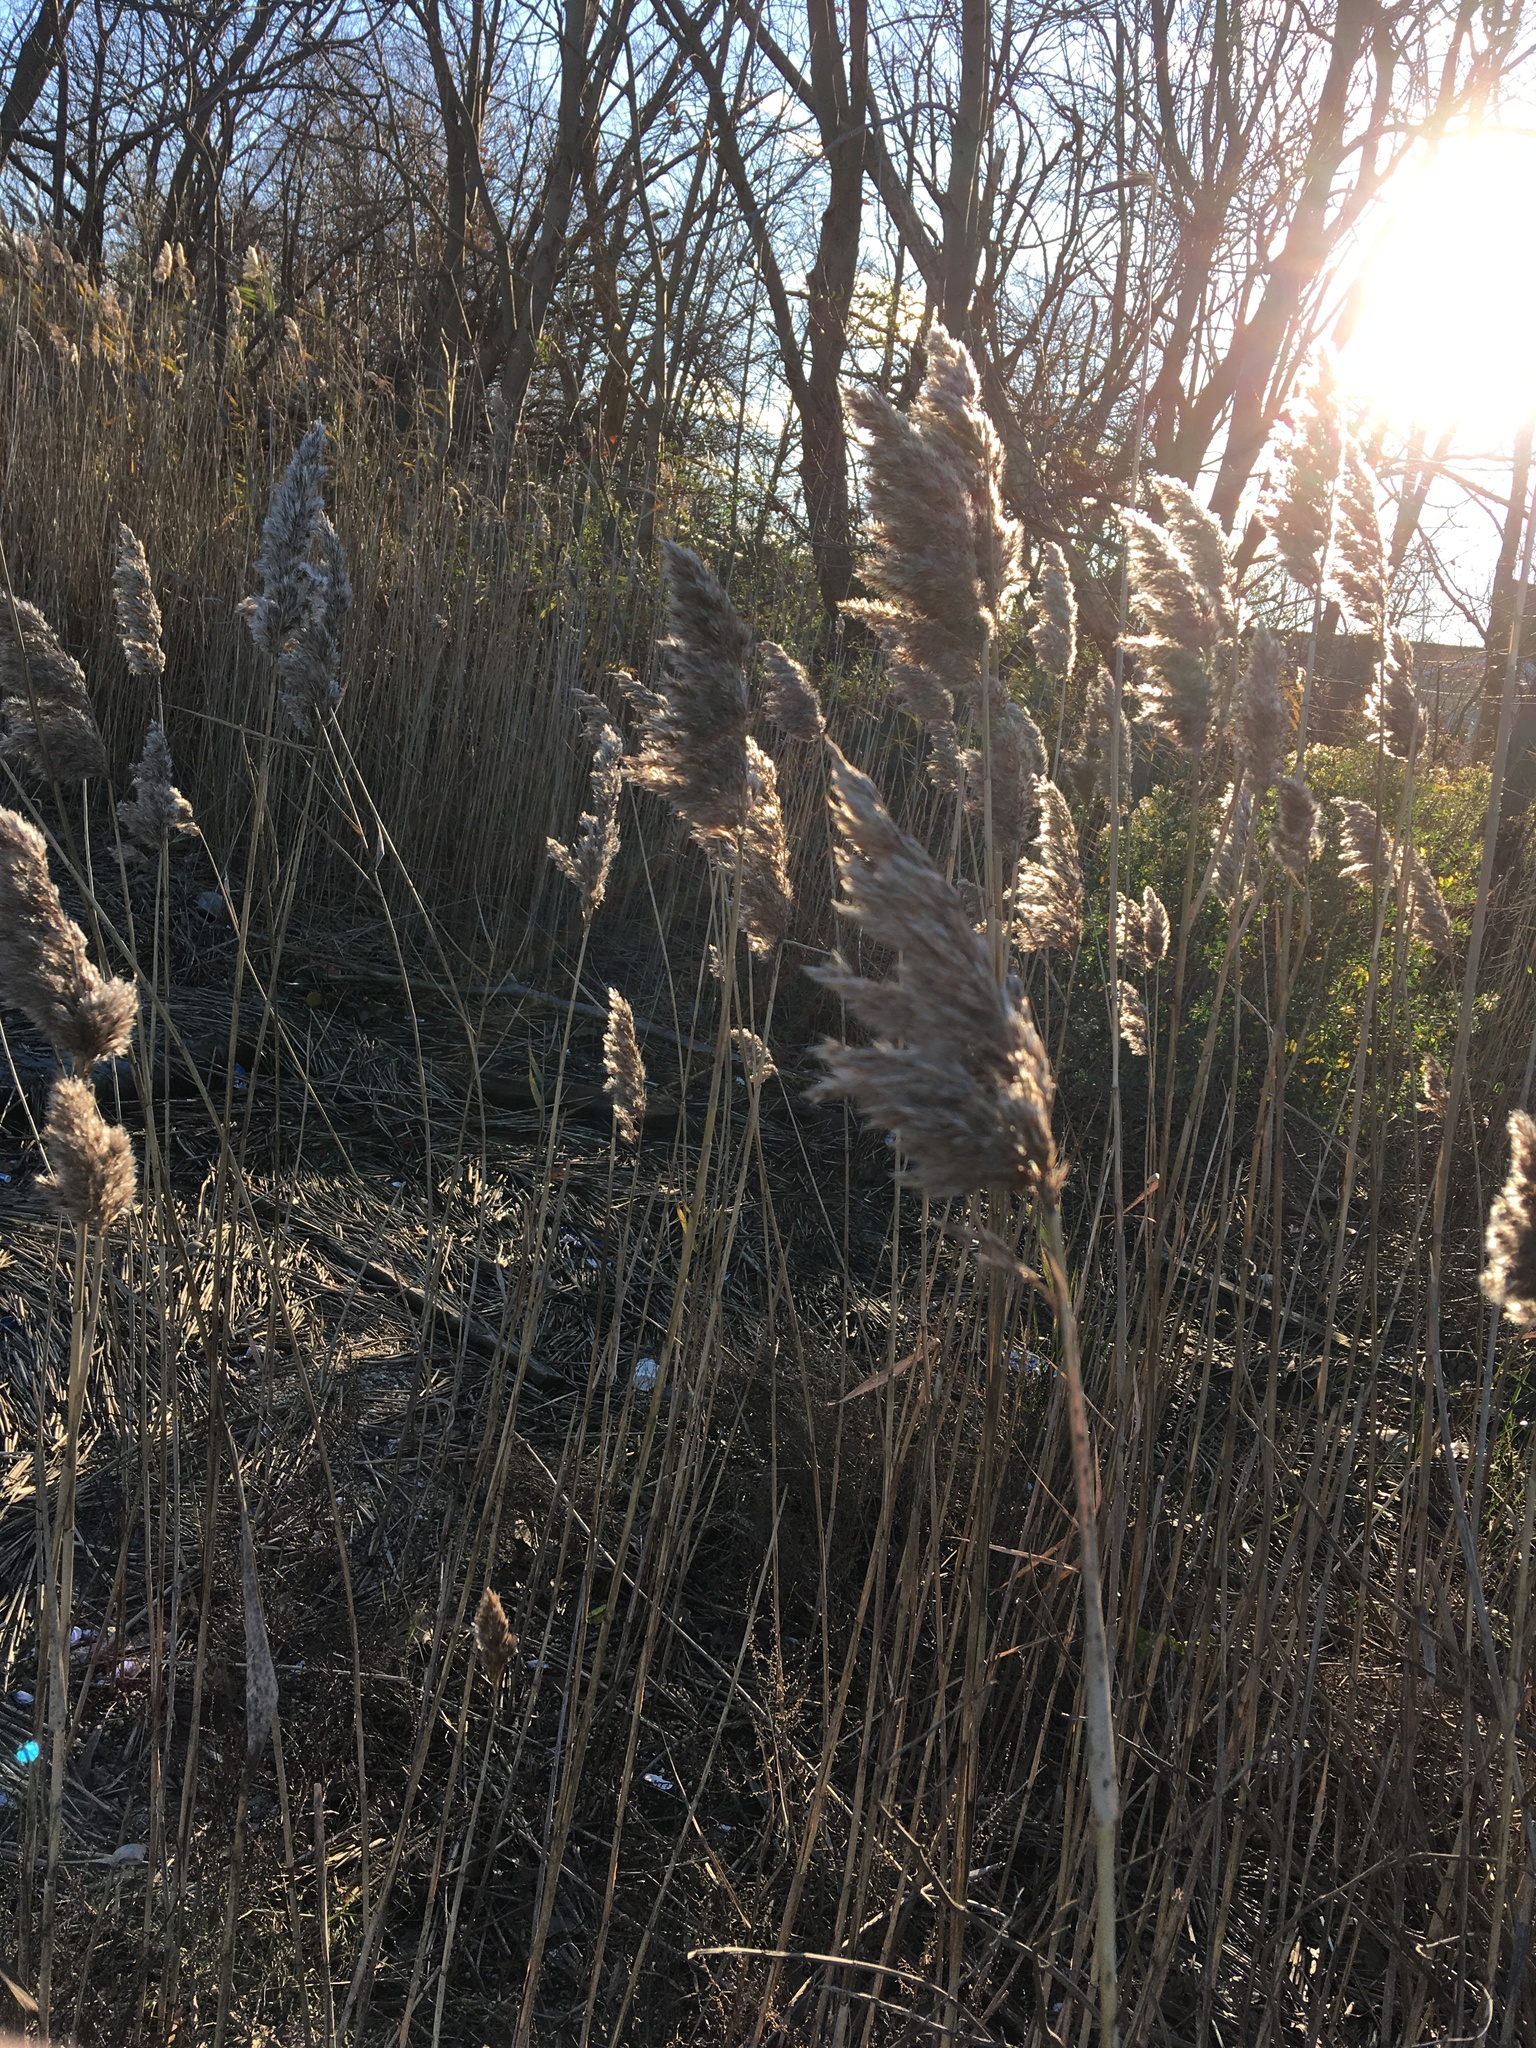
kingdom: Plantae
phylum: Tracheophyta
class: Liliopsida
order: Poales
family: Poaceae
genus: Phragmites
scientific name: Phragmites australis
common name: Common reed
